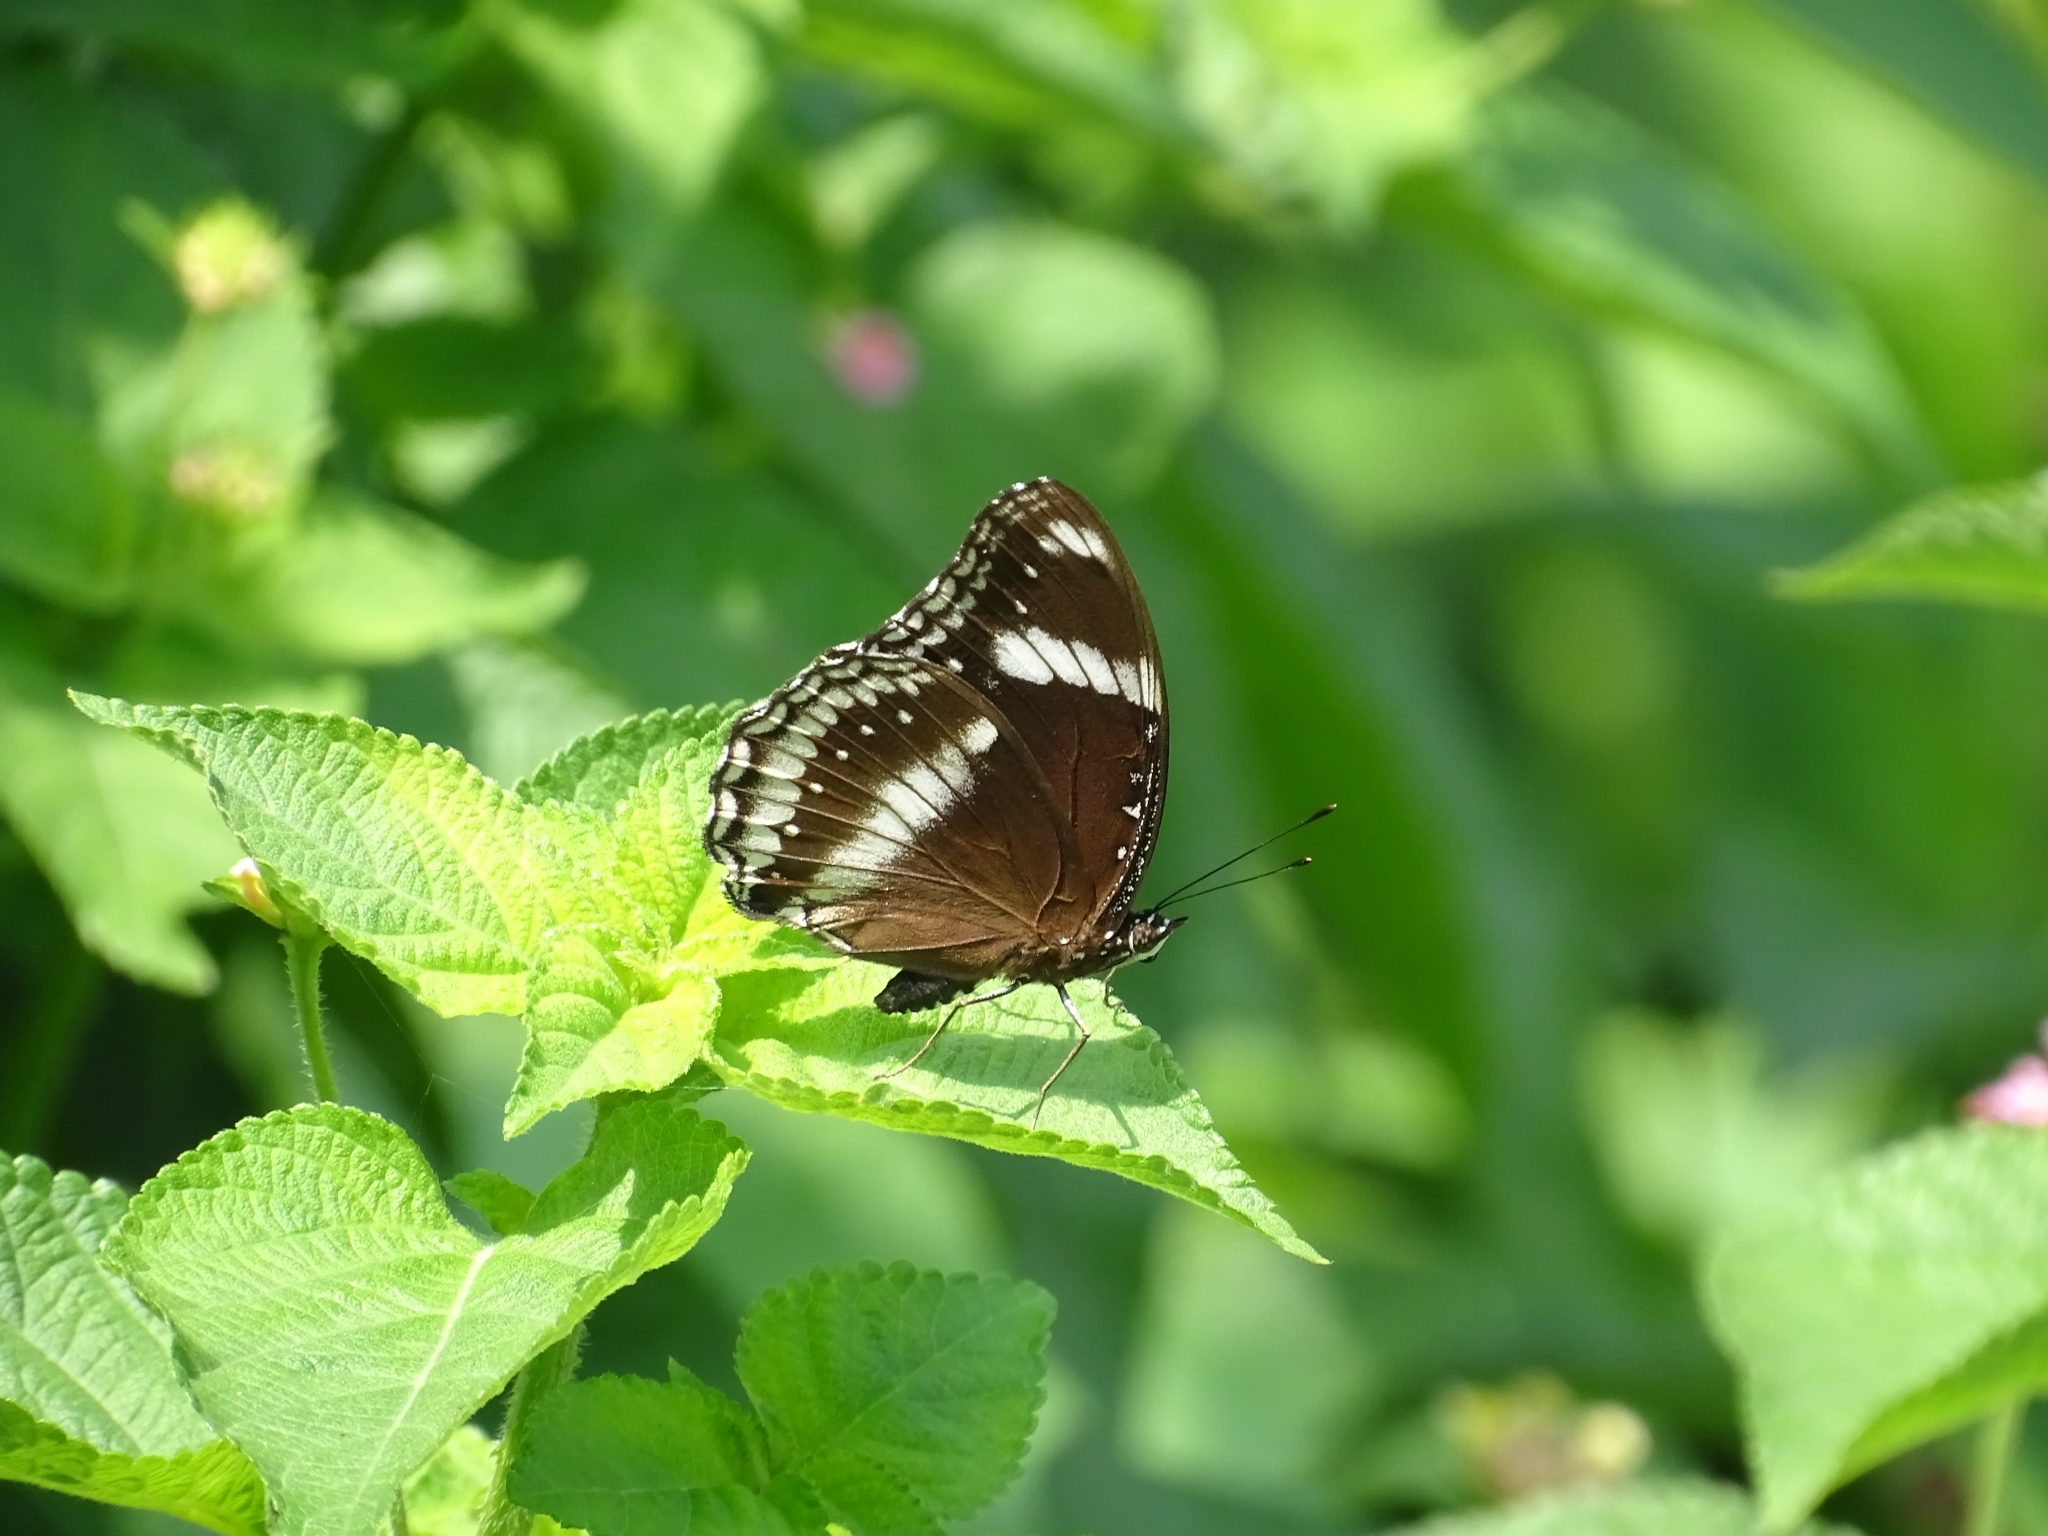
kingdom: Animalia
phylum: Arthropoda
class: Insecta
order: Lepidoptera
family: Nymphalidae
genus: Hypolimnas
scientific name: Hypolimnas bolina
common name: Great eggfly
